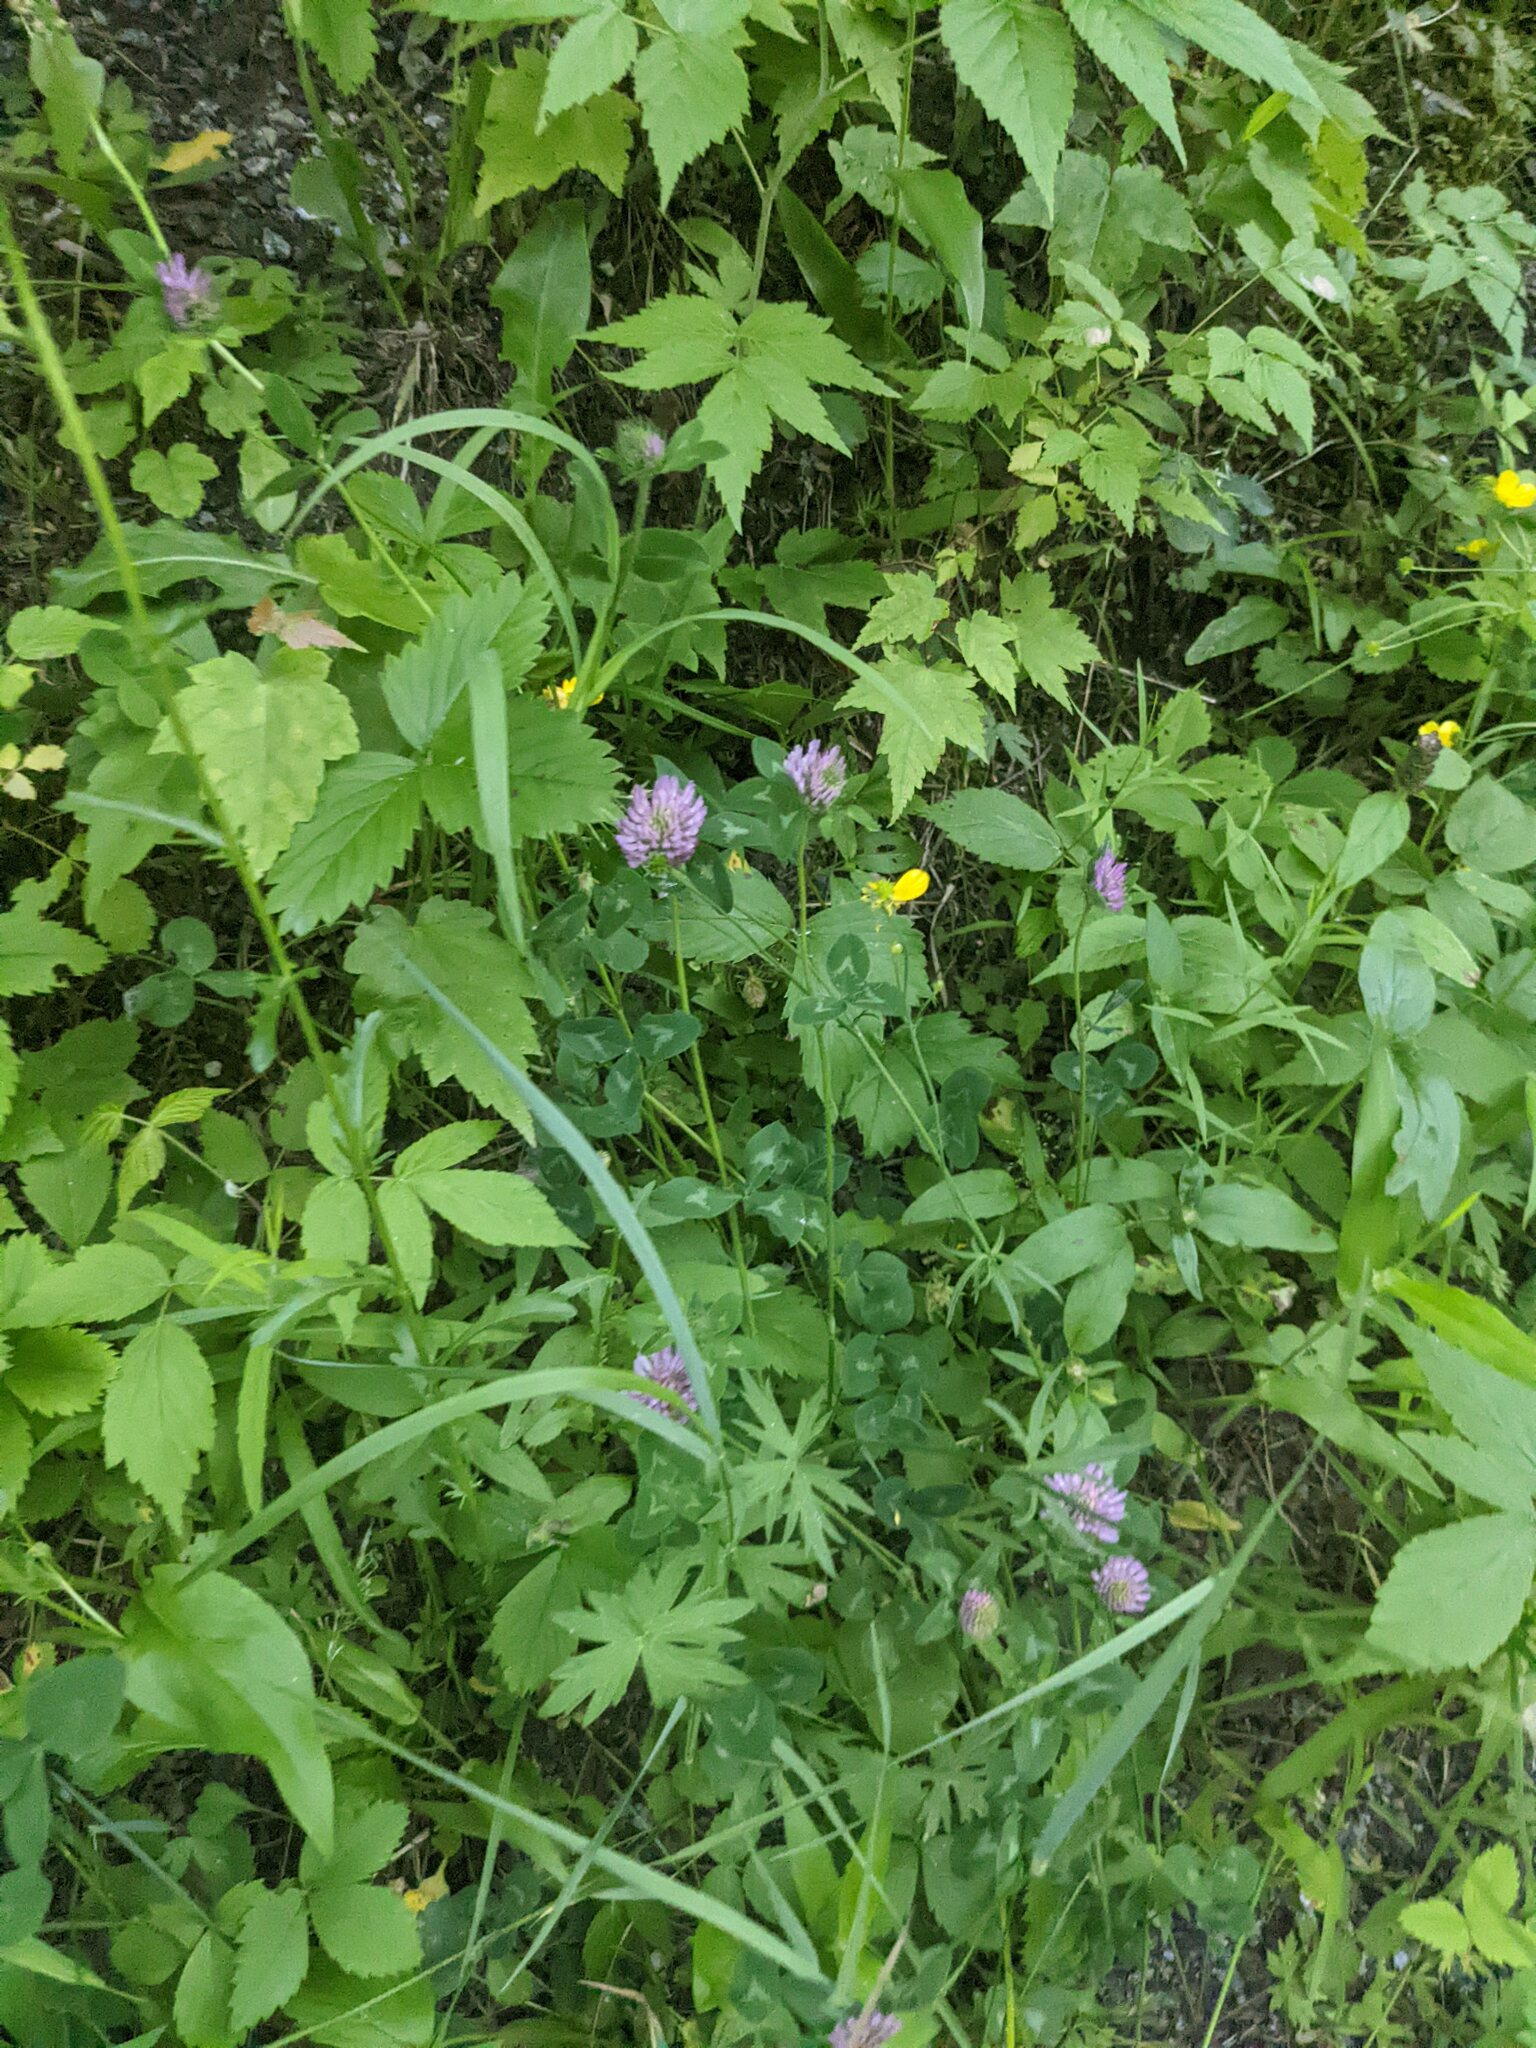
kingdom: Plantae
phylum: Tracheophyta
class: Magnoliopsida
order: Fabales
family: Fabaceae
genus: Trifolium
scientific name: Trifolium pratense
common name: Red clover
